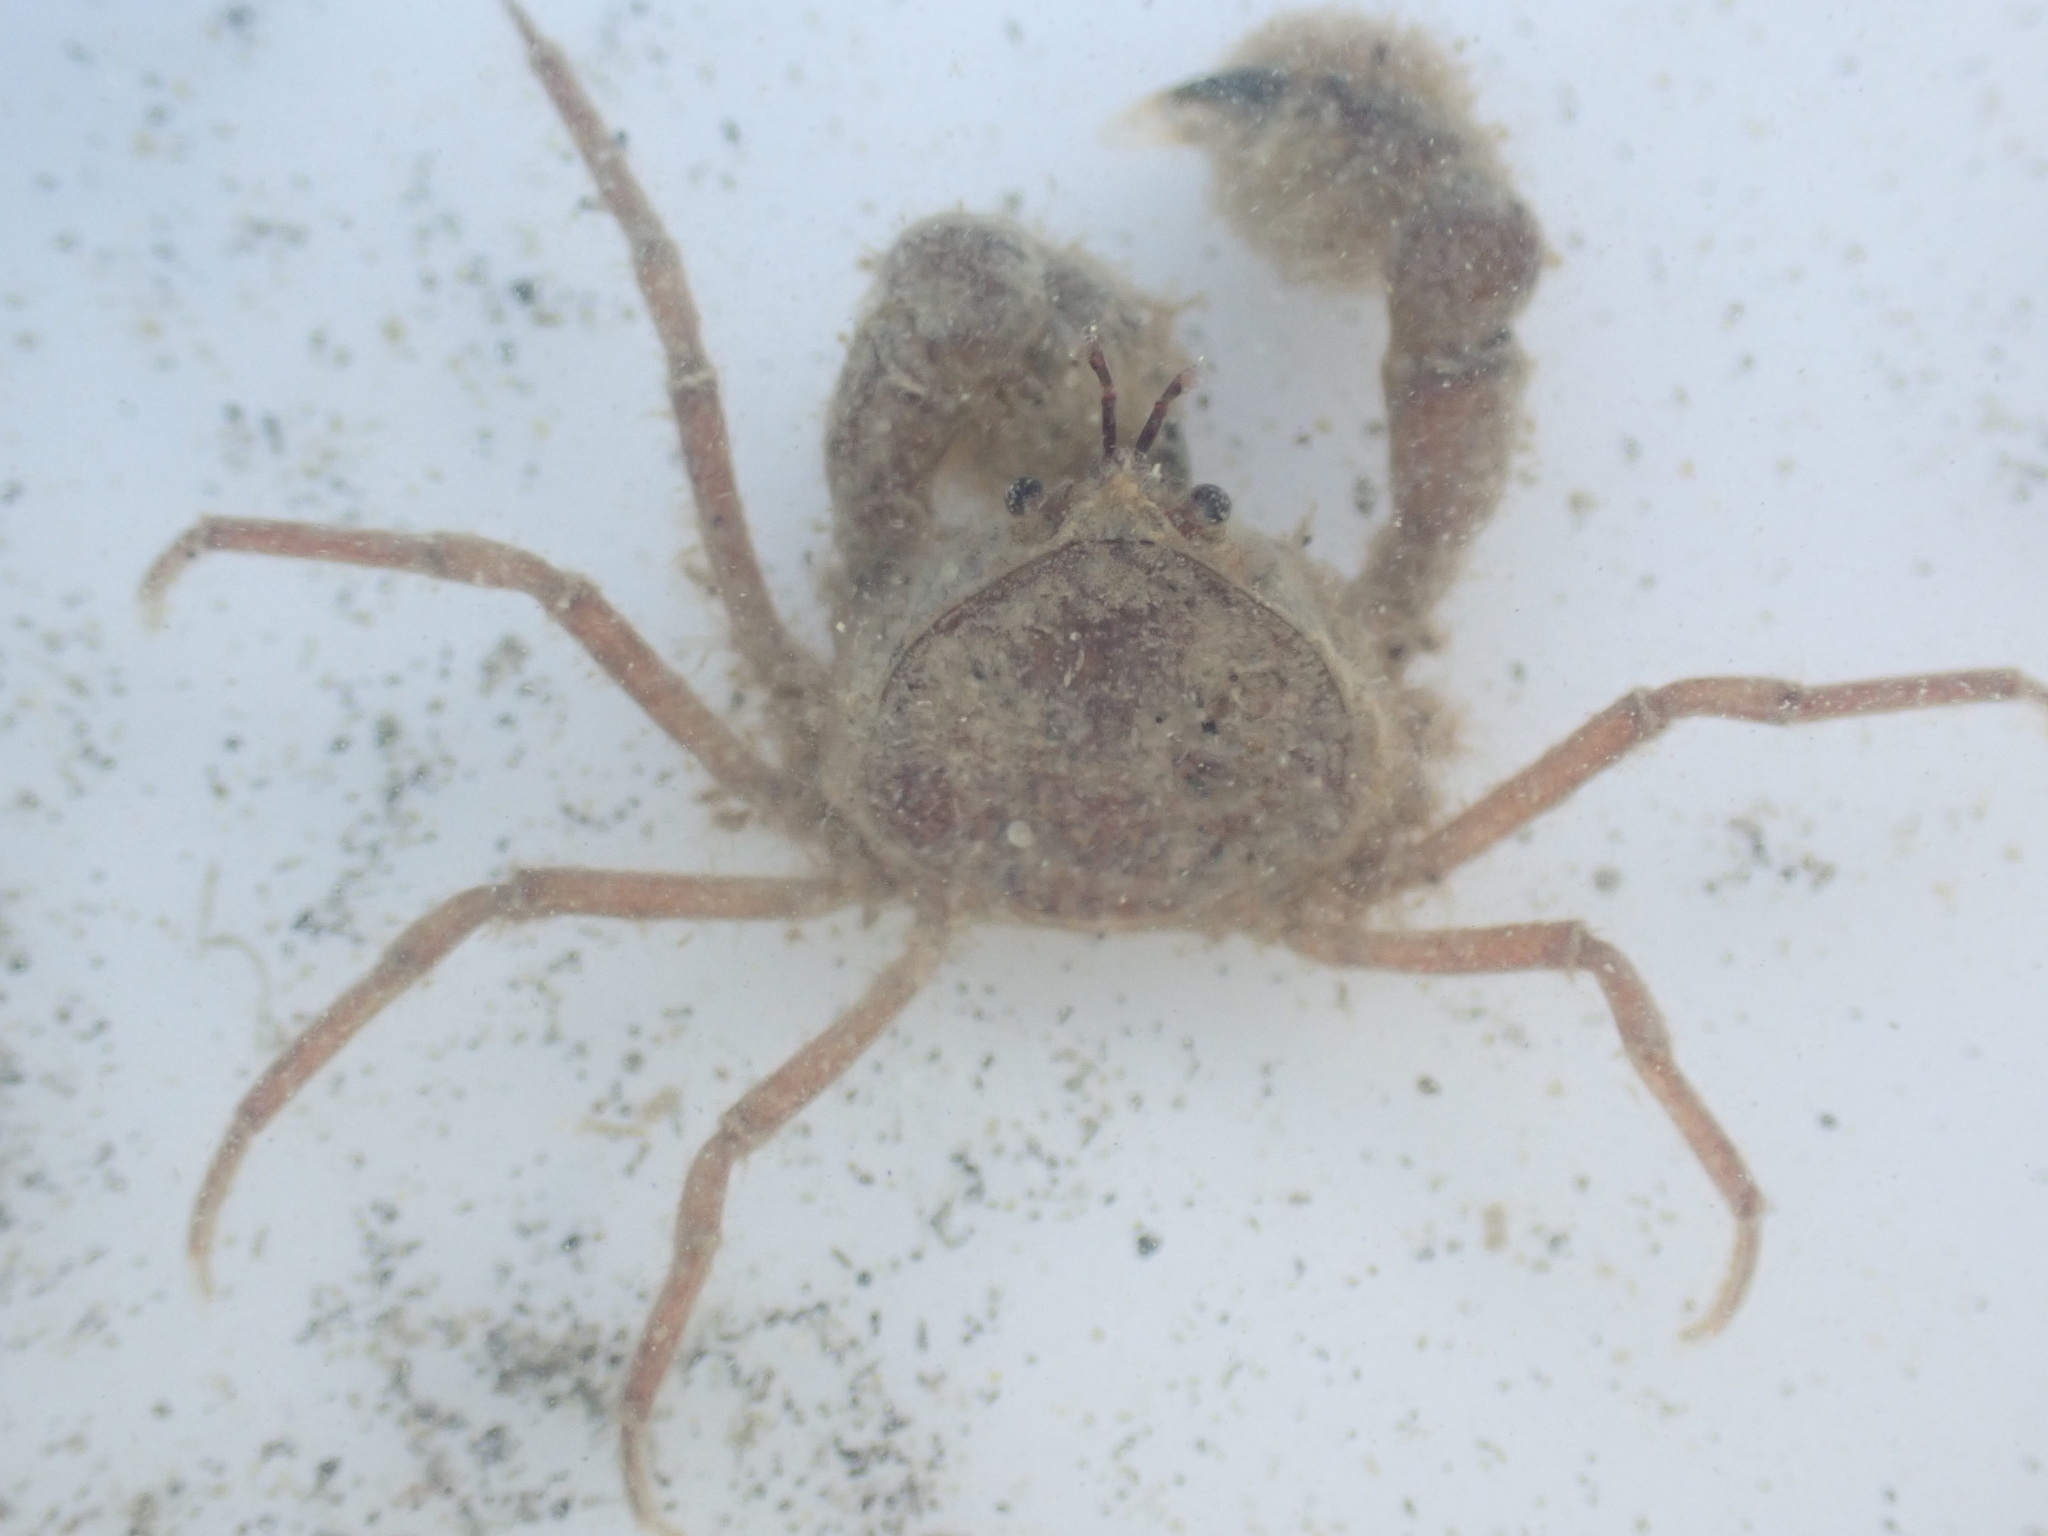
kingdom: Animalia
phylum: Arthropoda
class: Malacostraca
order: Decapoda
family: Hymenosomatidae
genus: Halicarcinus
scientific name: Halicarcinus varius
